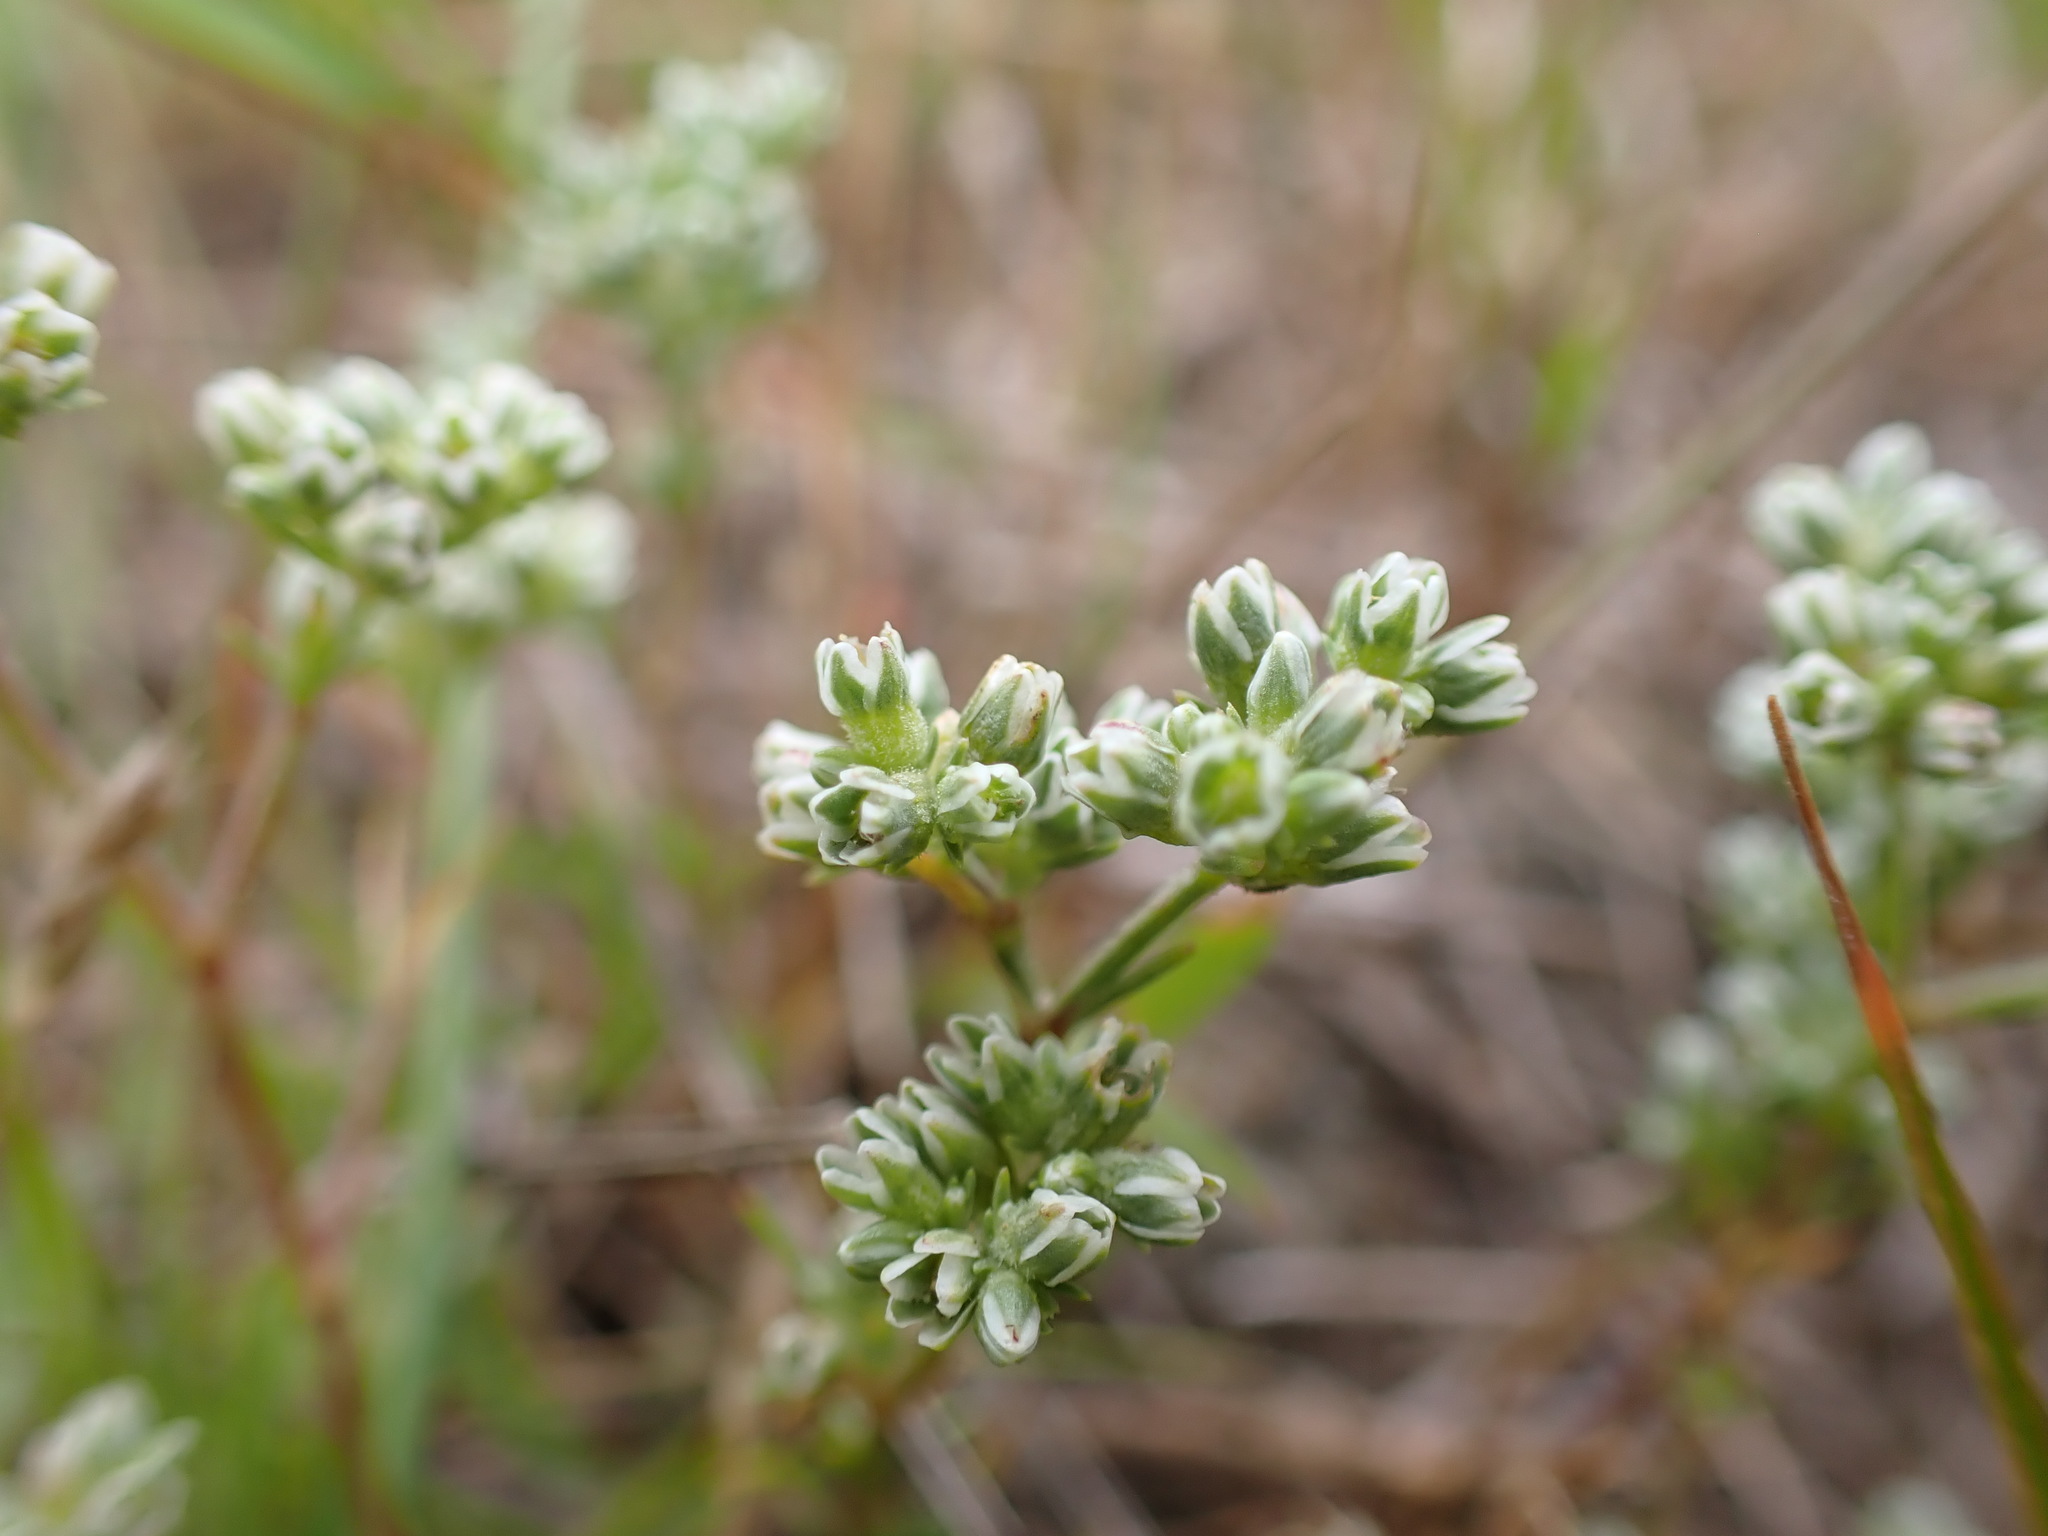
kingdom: Plantae
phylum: Tracheophyta
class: Magnoliopsida
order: Caryophyllales
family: Caryophyllaceae
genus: Scleranthus
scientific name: Scleranthus perennis
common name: Perennial knawel
